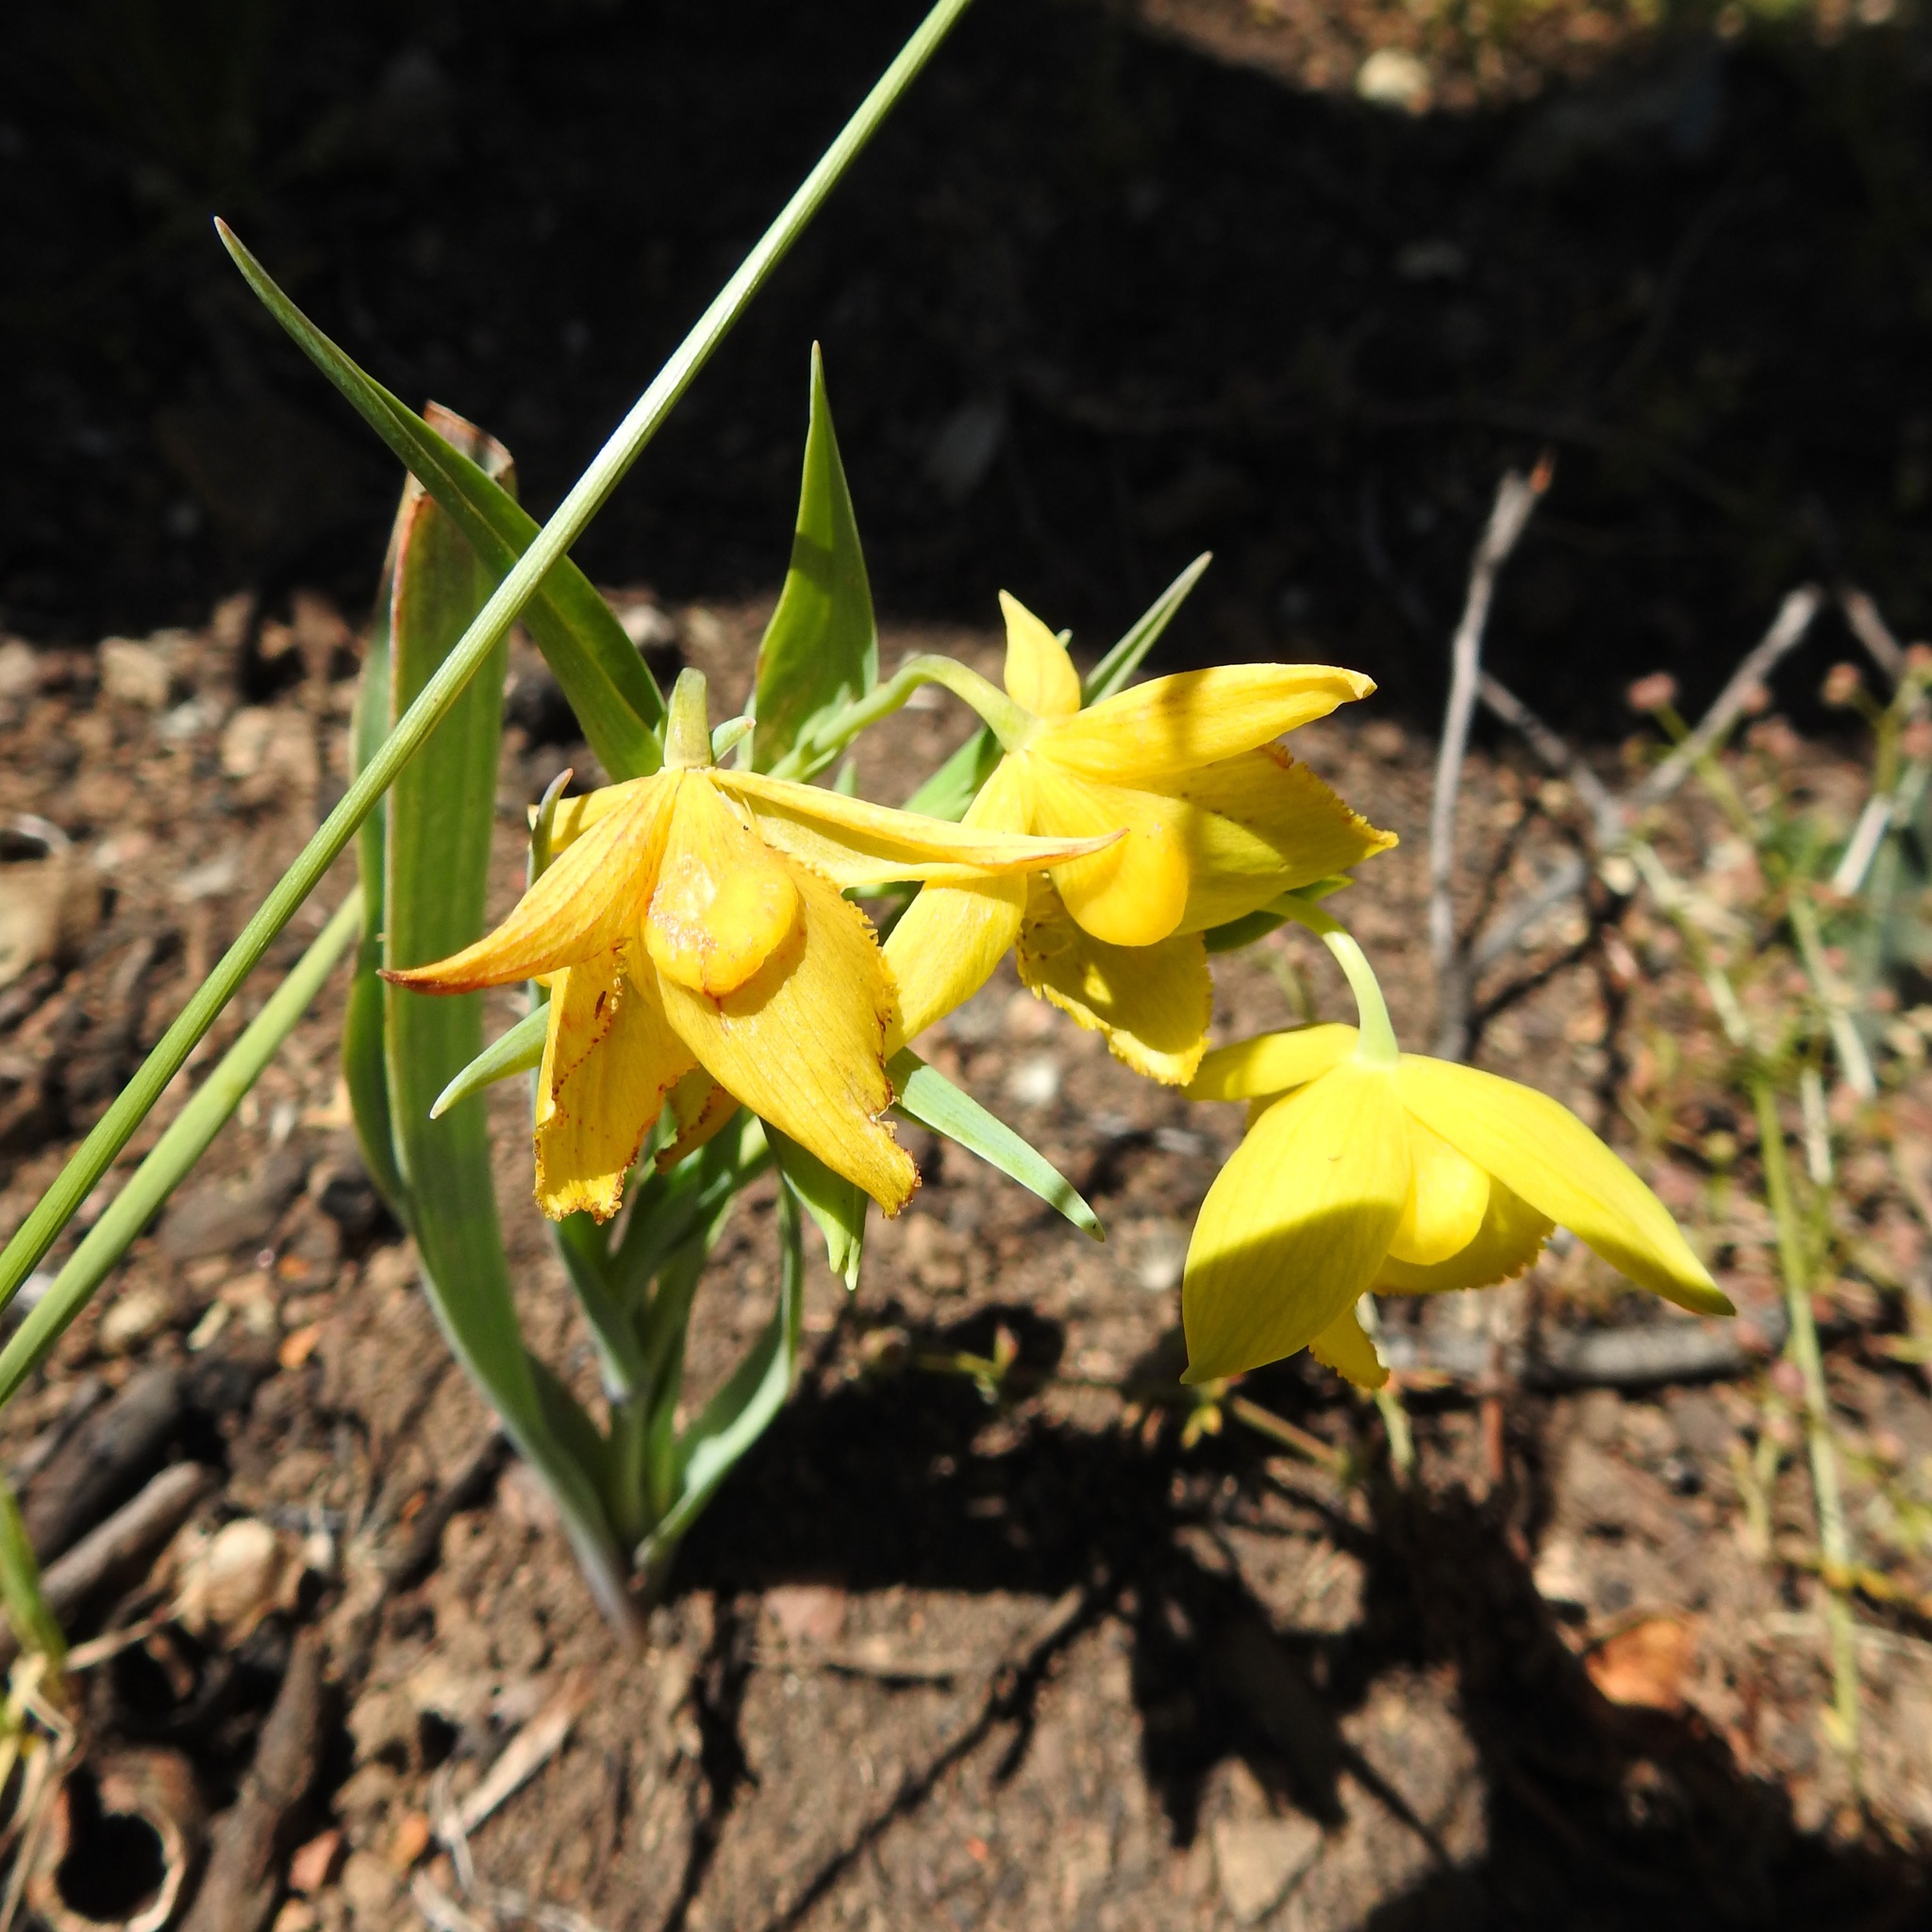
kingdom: Plantae
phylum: Tracheophyta
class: Liliopsida
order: Liliales
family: Liliaceae
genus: Calochortus
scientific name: Calochortus amabilis
